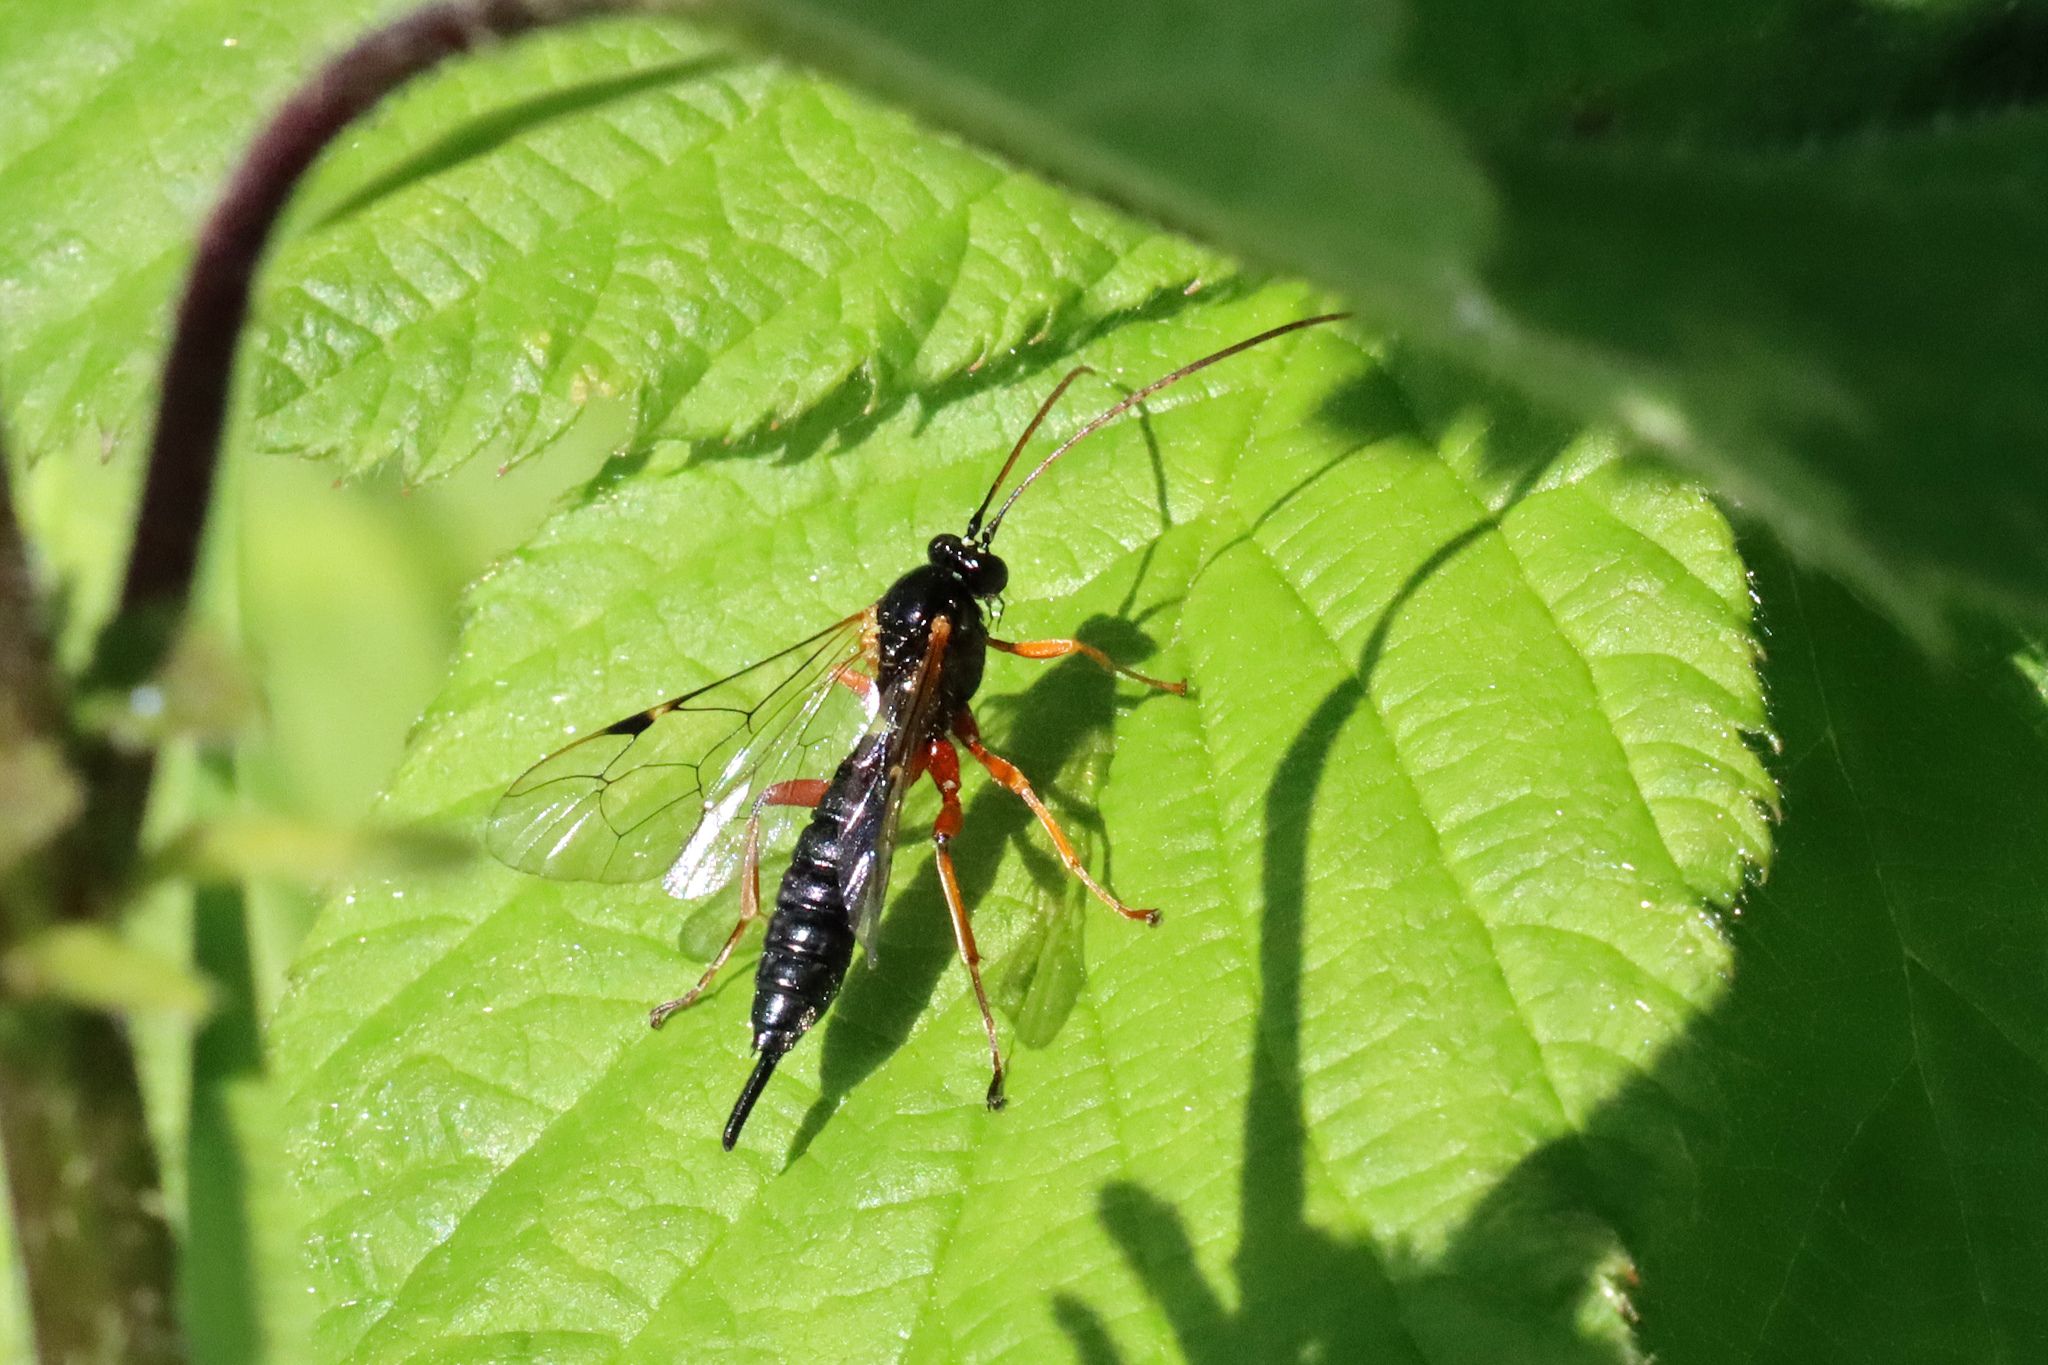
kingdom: Animalia
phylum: Arthropoda
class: Insecta
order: Hymenoptera
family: Ichneumonidae
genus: Apechthis
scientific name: Apechthis compunctor
